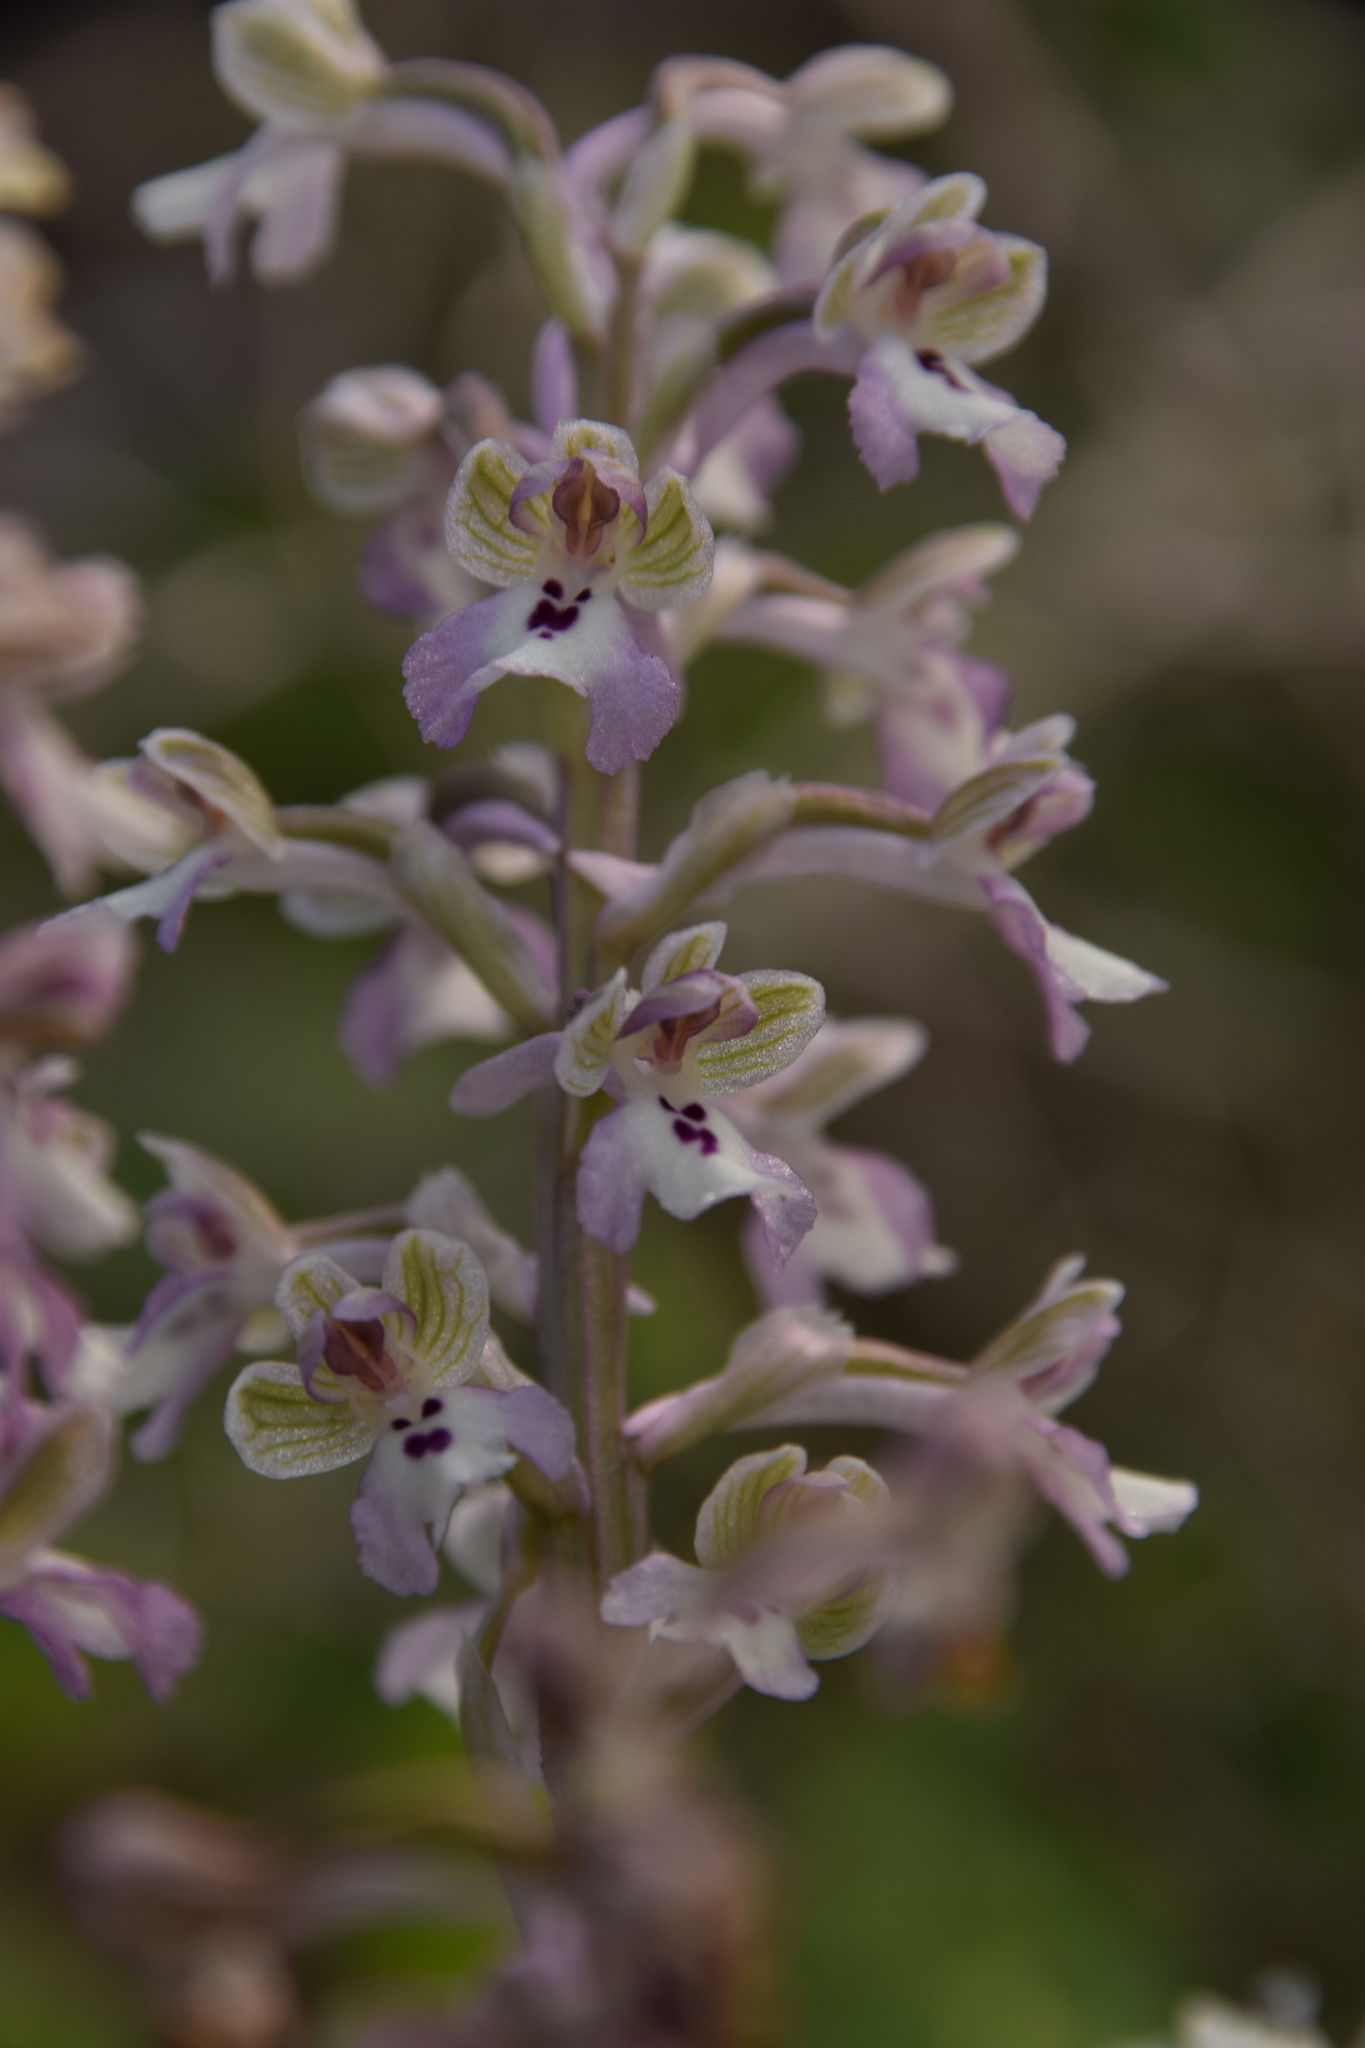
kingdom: Plantae
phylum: Tracheophyta
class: Liliopsida
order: Asparagales
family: Orchidaceae
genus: Anacamptis
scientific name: Anacamptis israelitica
